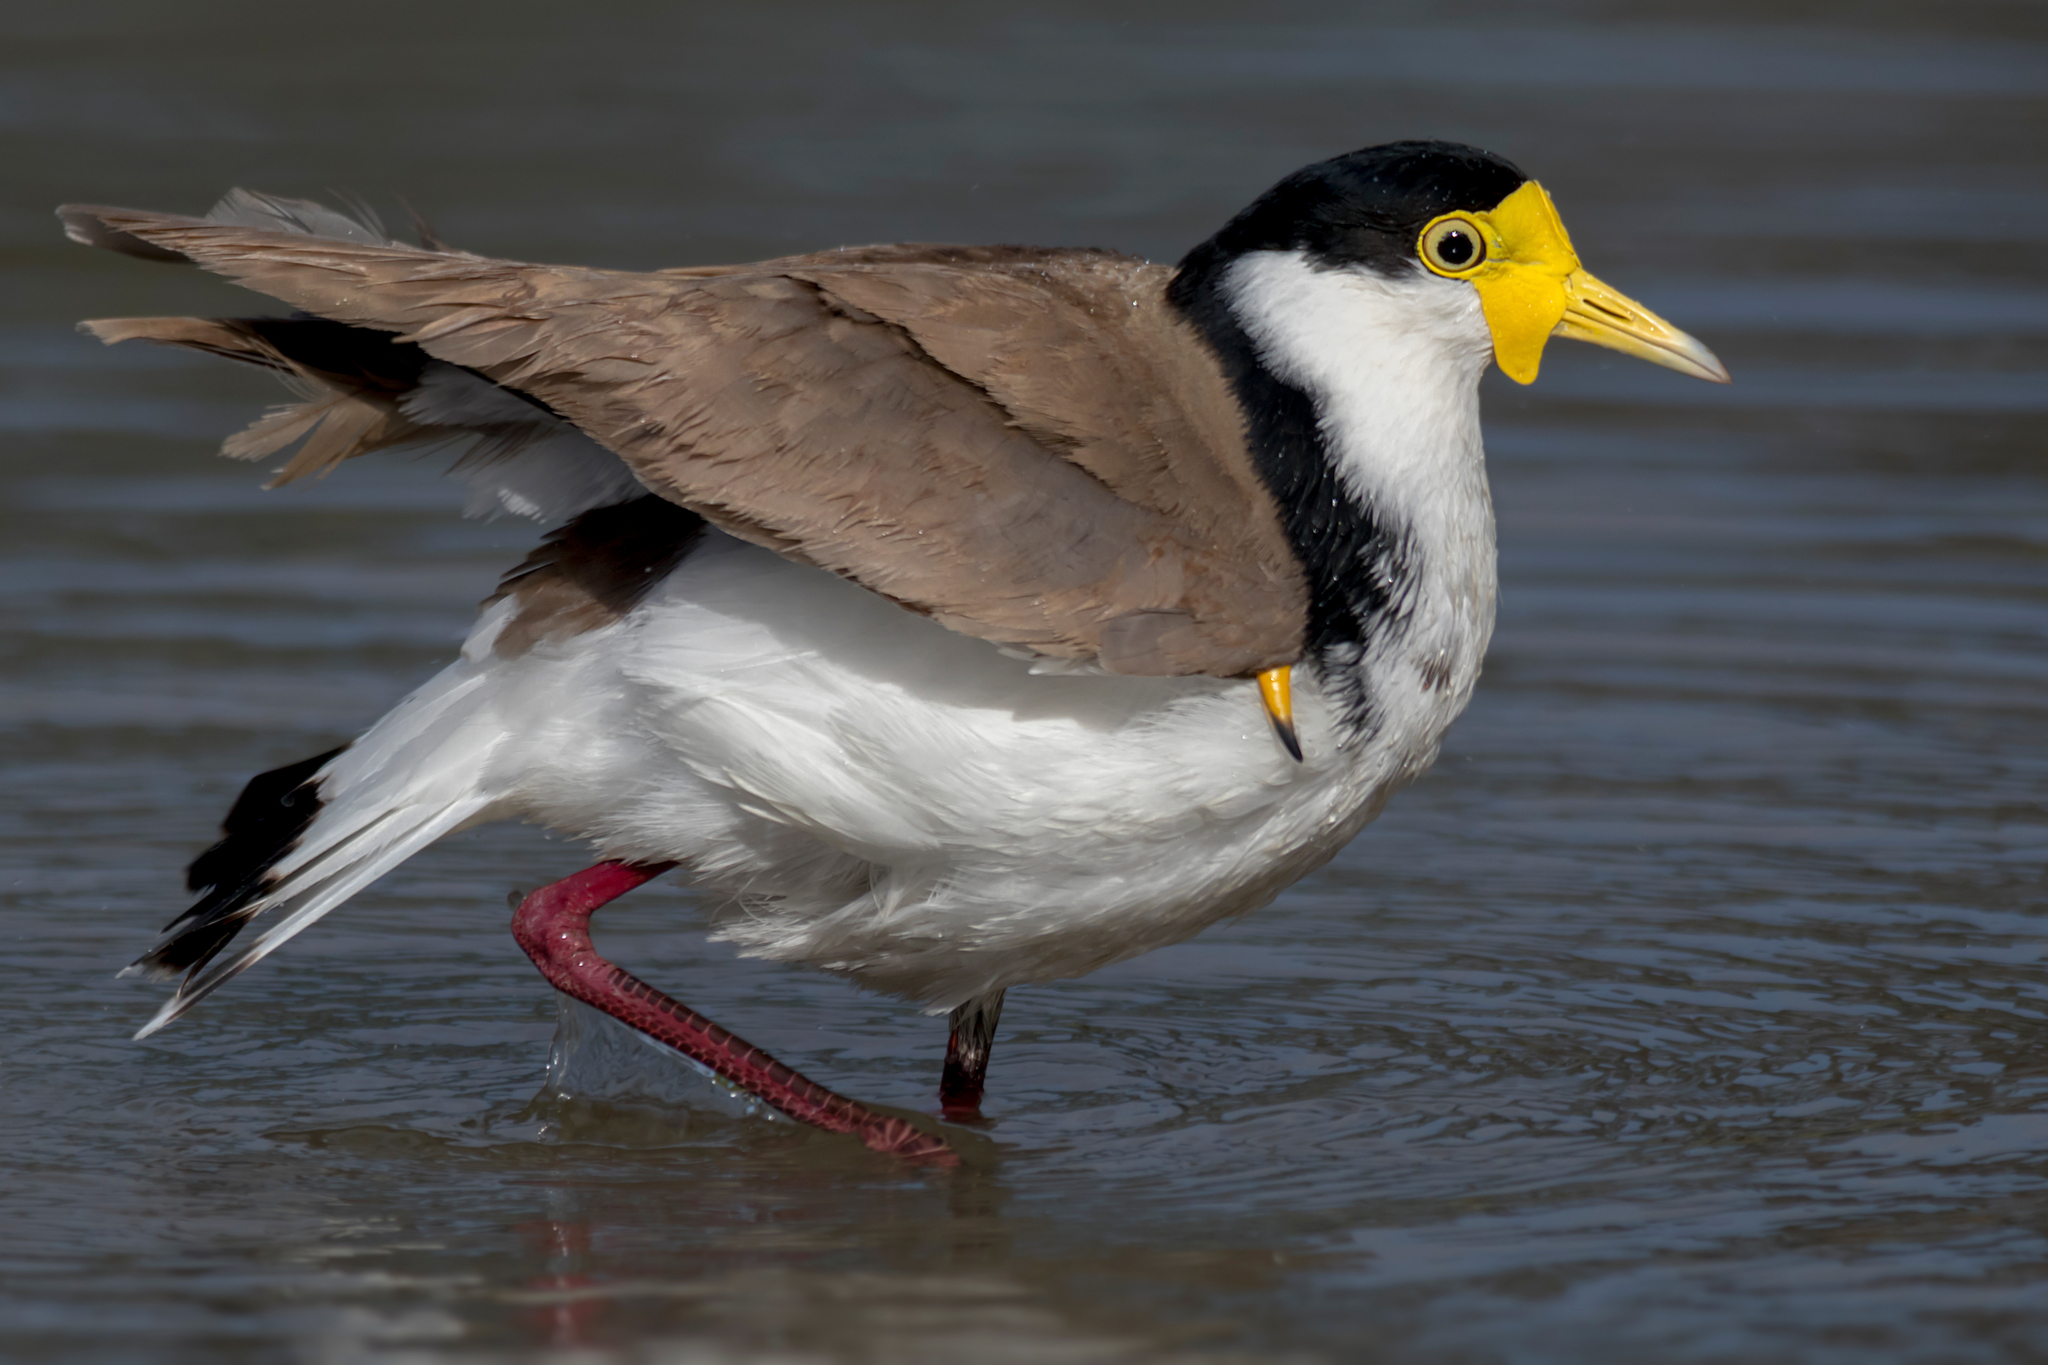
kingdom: Animalia
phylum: Chordata
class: Aves
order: Charadriiformes
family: Charadriidae
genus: Vanellus
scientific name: Vanellus miles
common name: Masked lapwing
